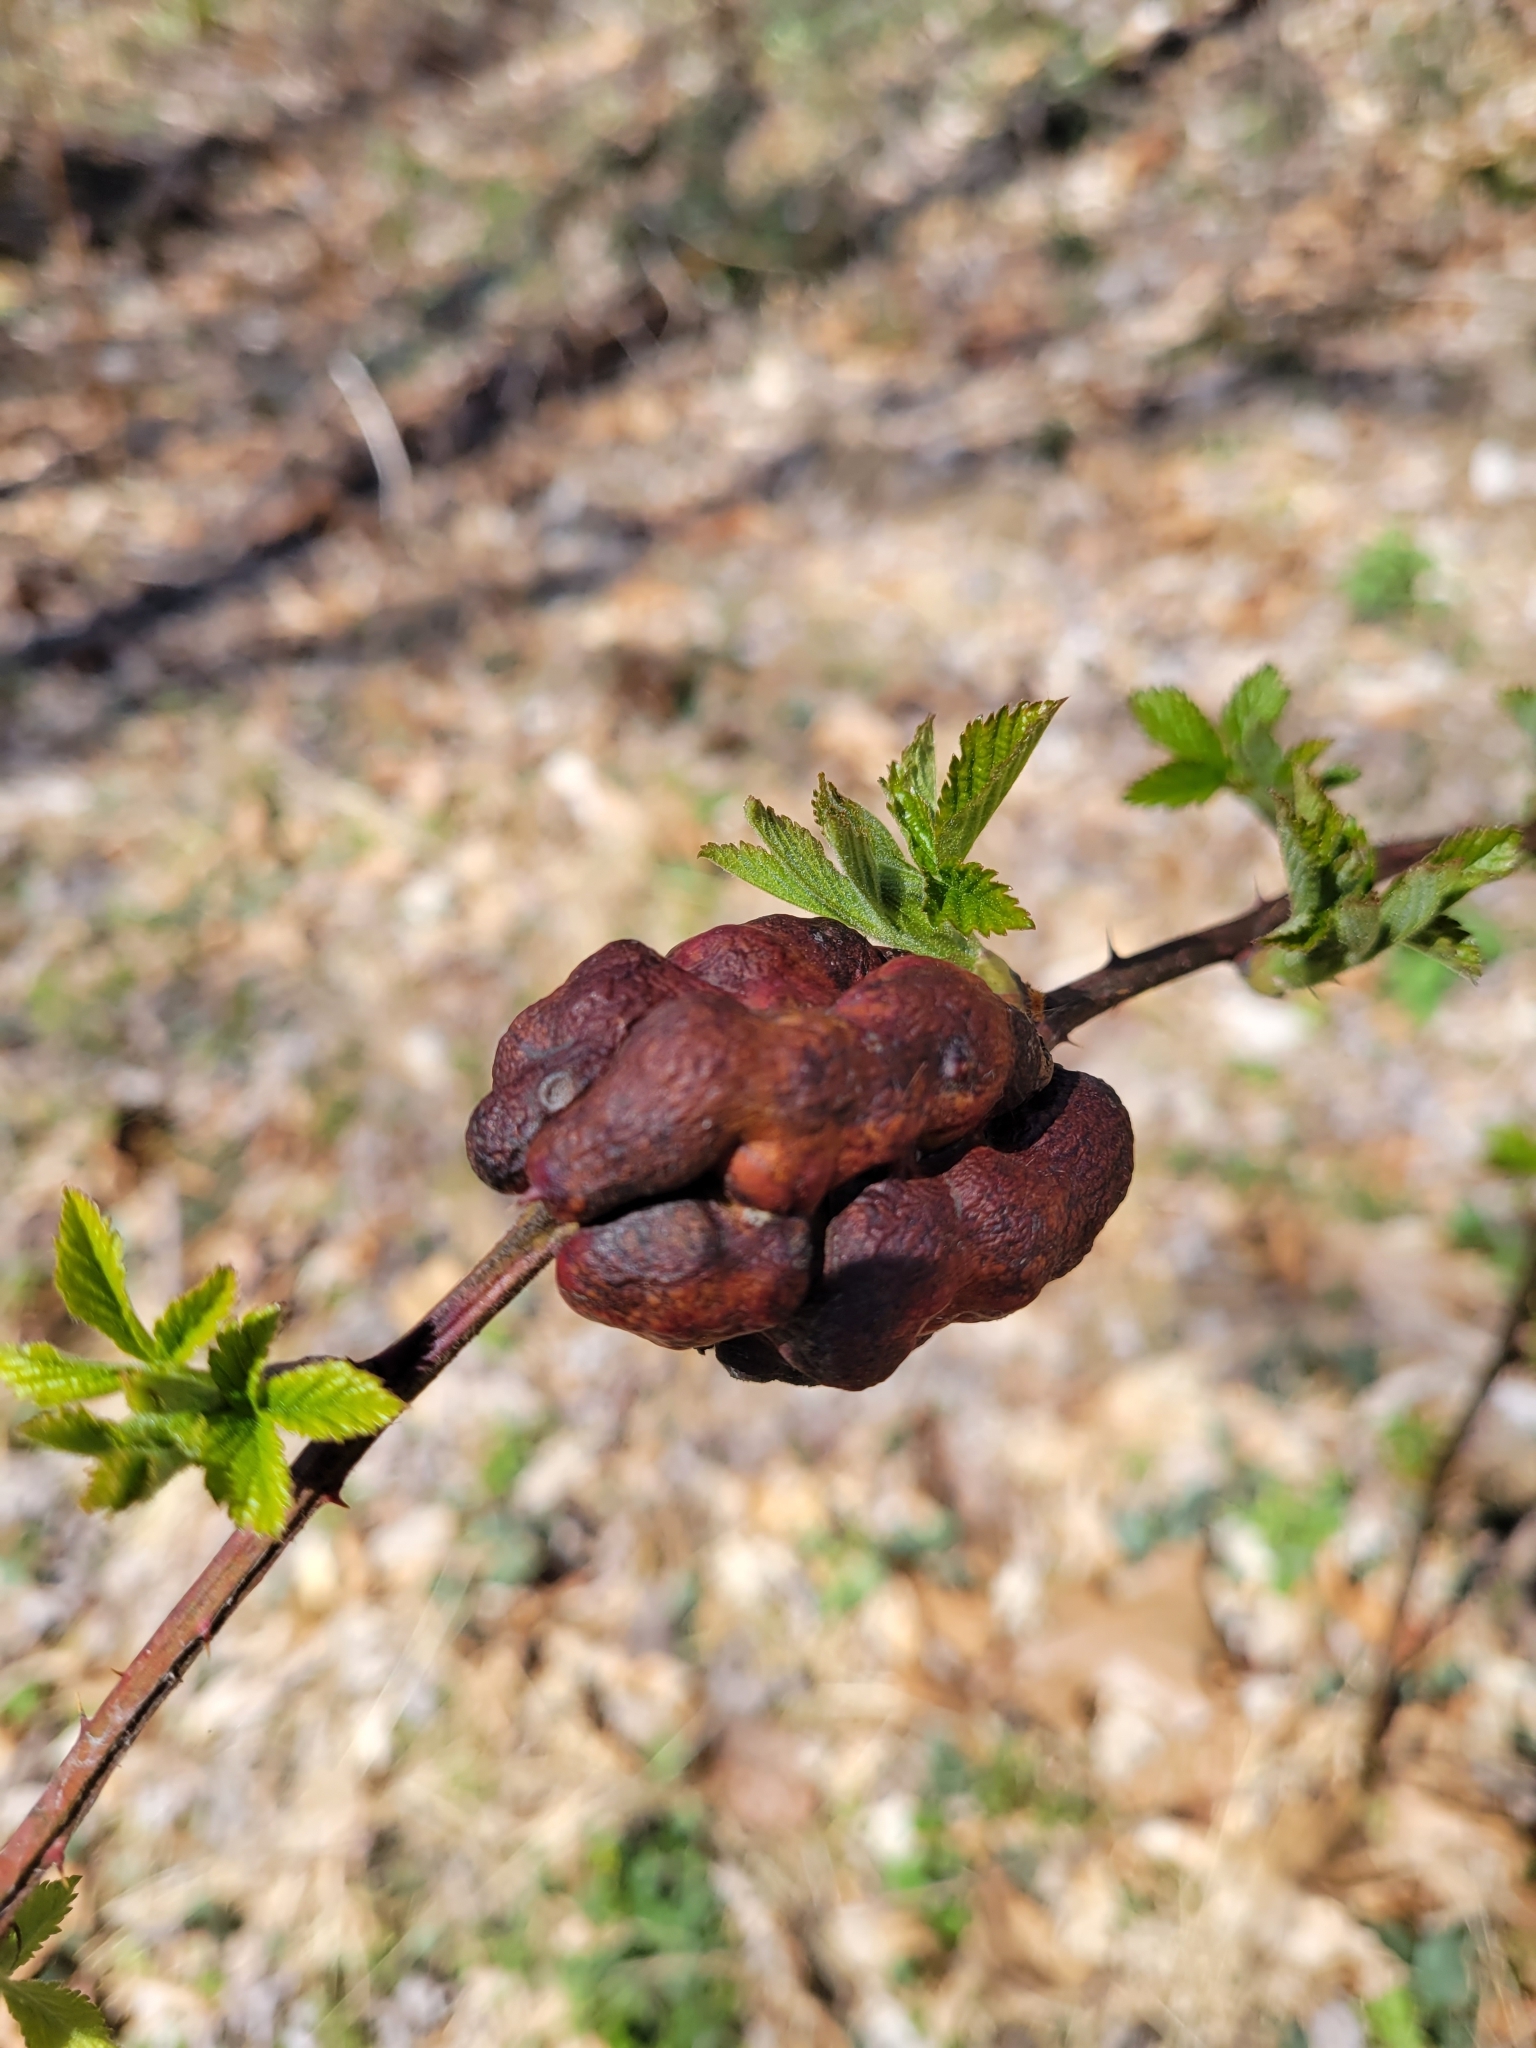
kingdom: Animalia
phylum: Arthropoda
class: Insecta
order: Hymenoptera
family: Cynipidae
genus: Diastrophus
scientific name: Diastrophus
